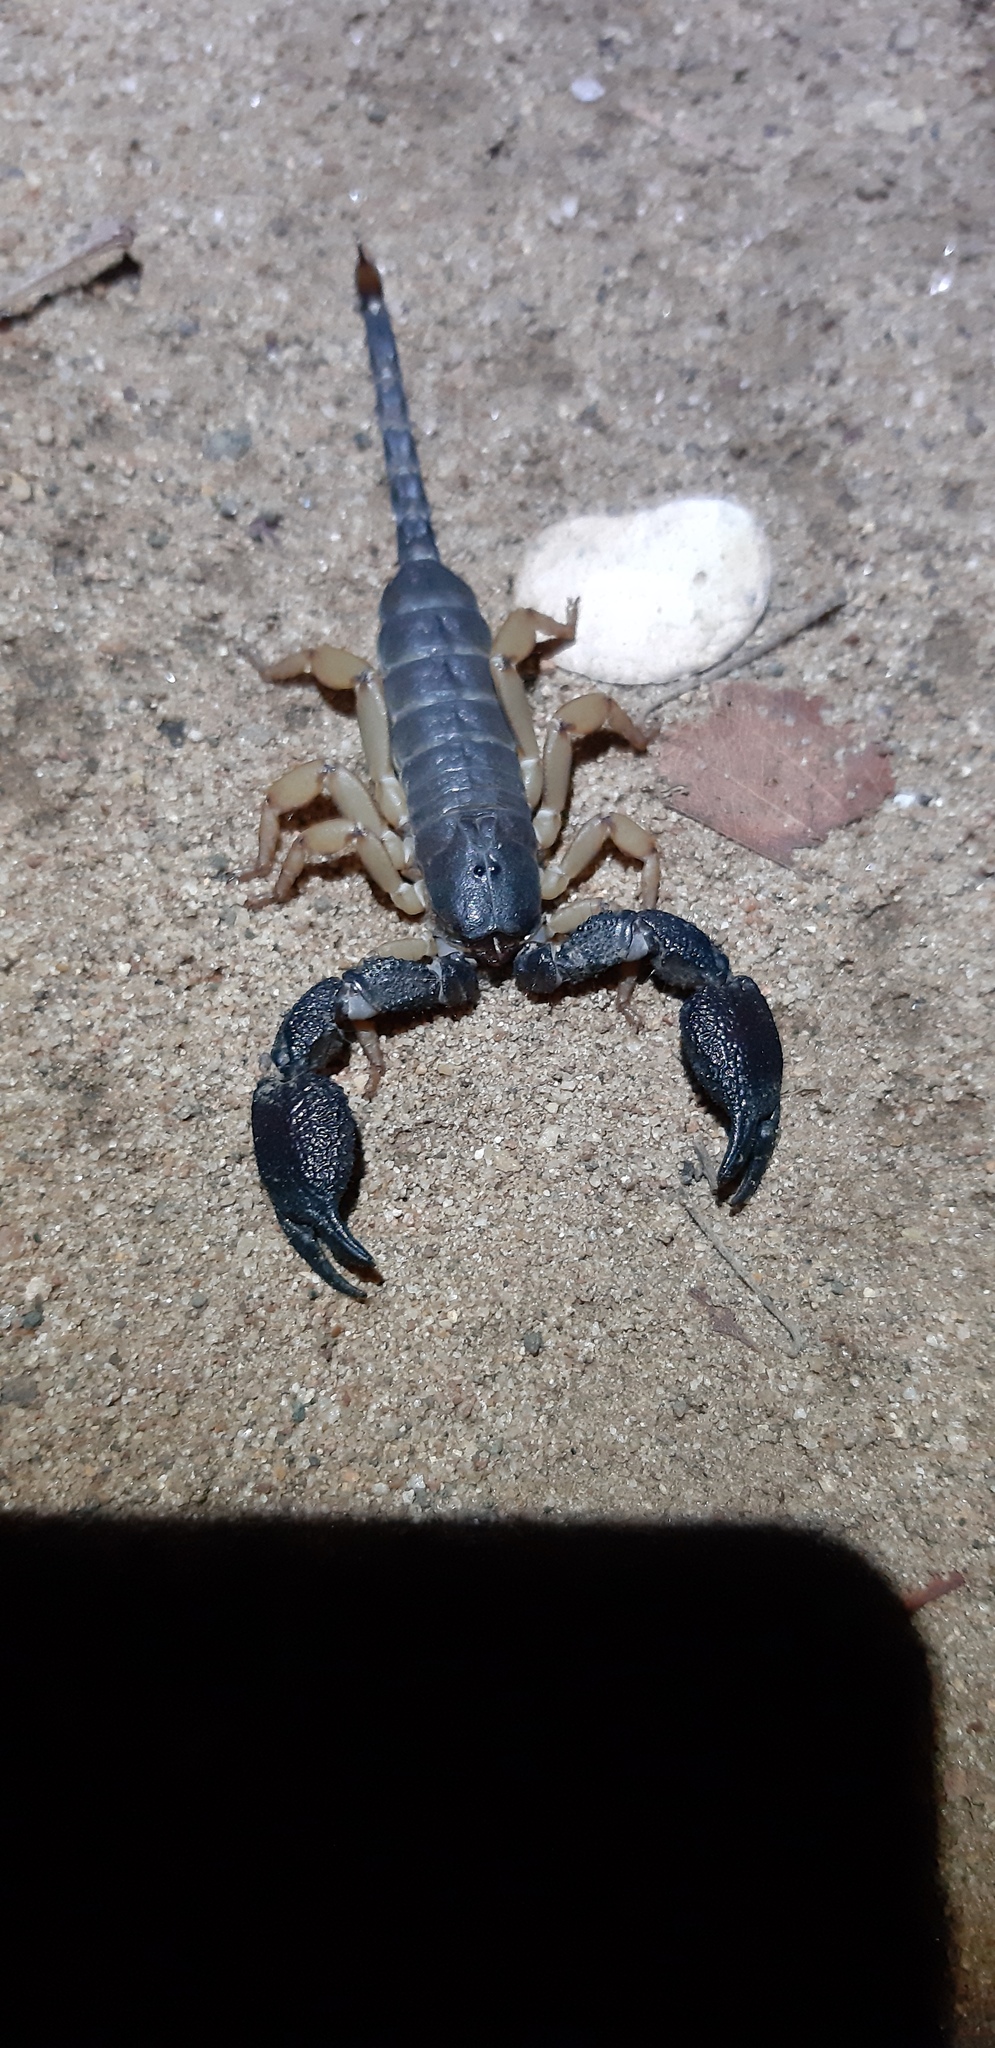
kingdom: Animalia
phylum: Arthropoda
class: Arachnida
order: Scorpiones
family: Hormuridae
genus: Opisthacanthus
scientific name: Opisthacanthus asper
